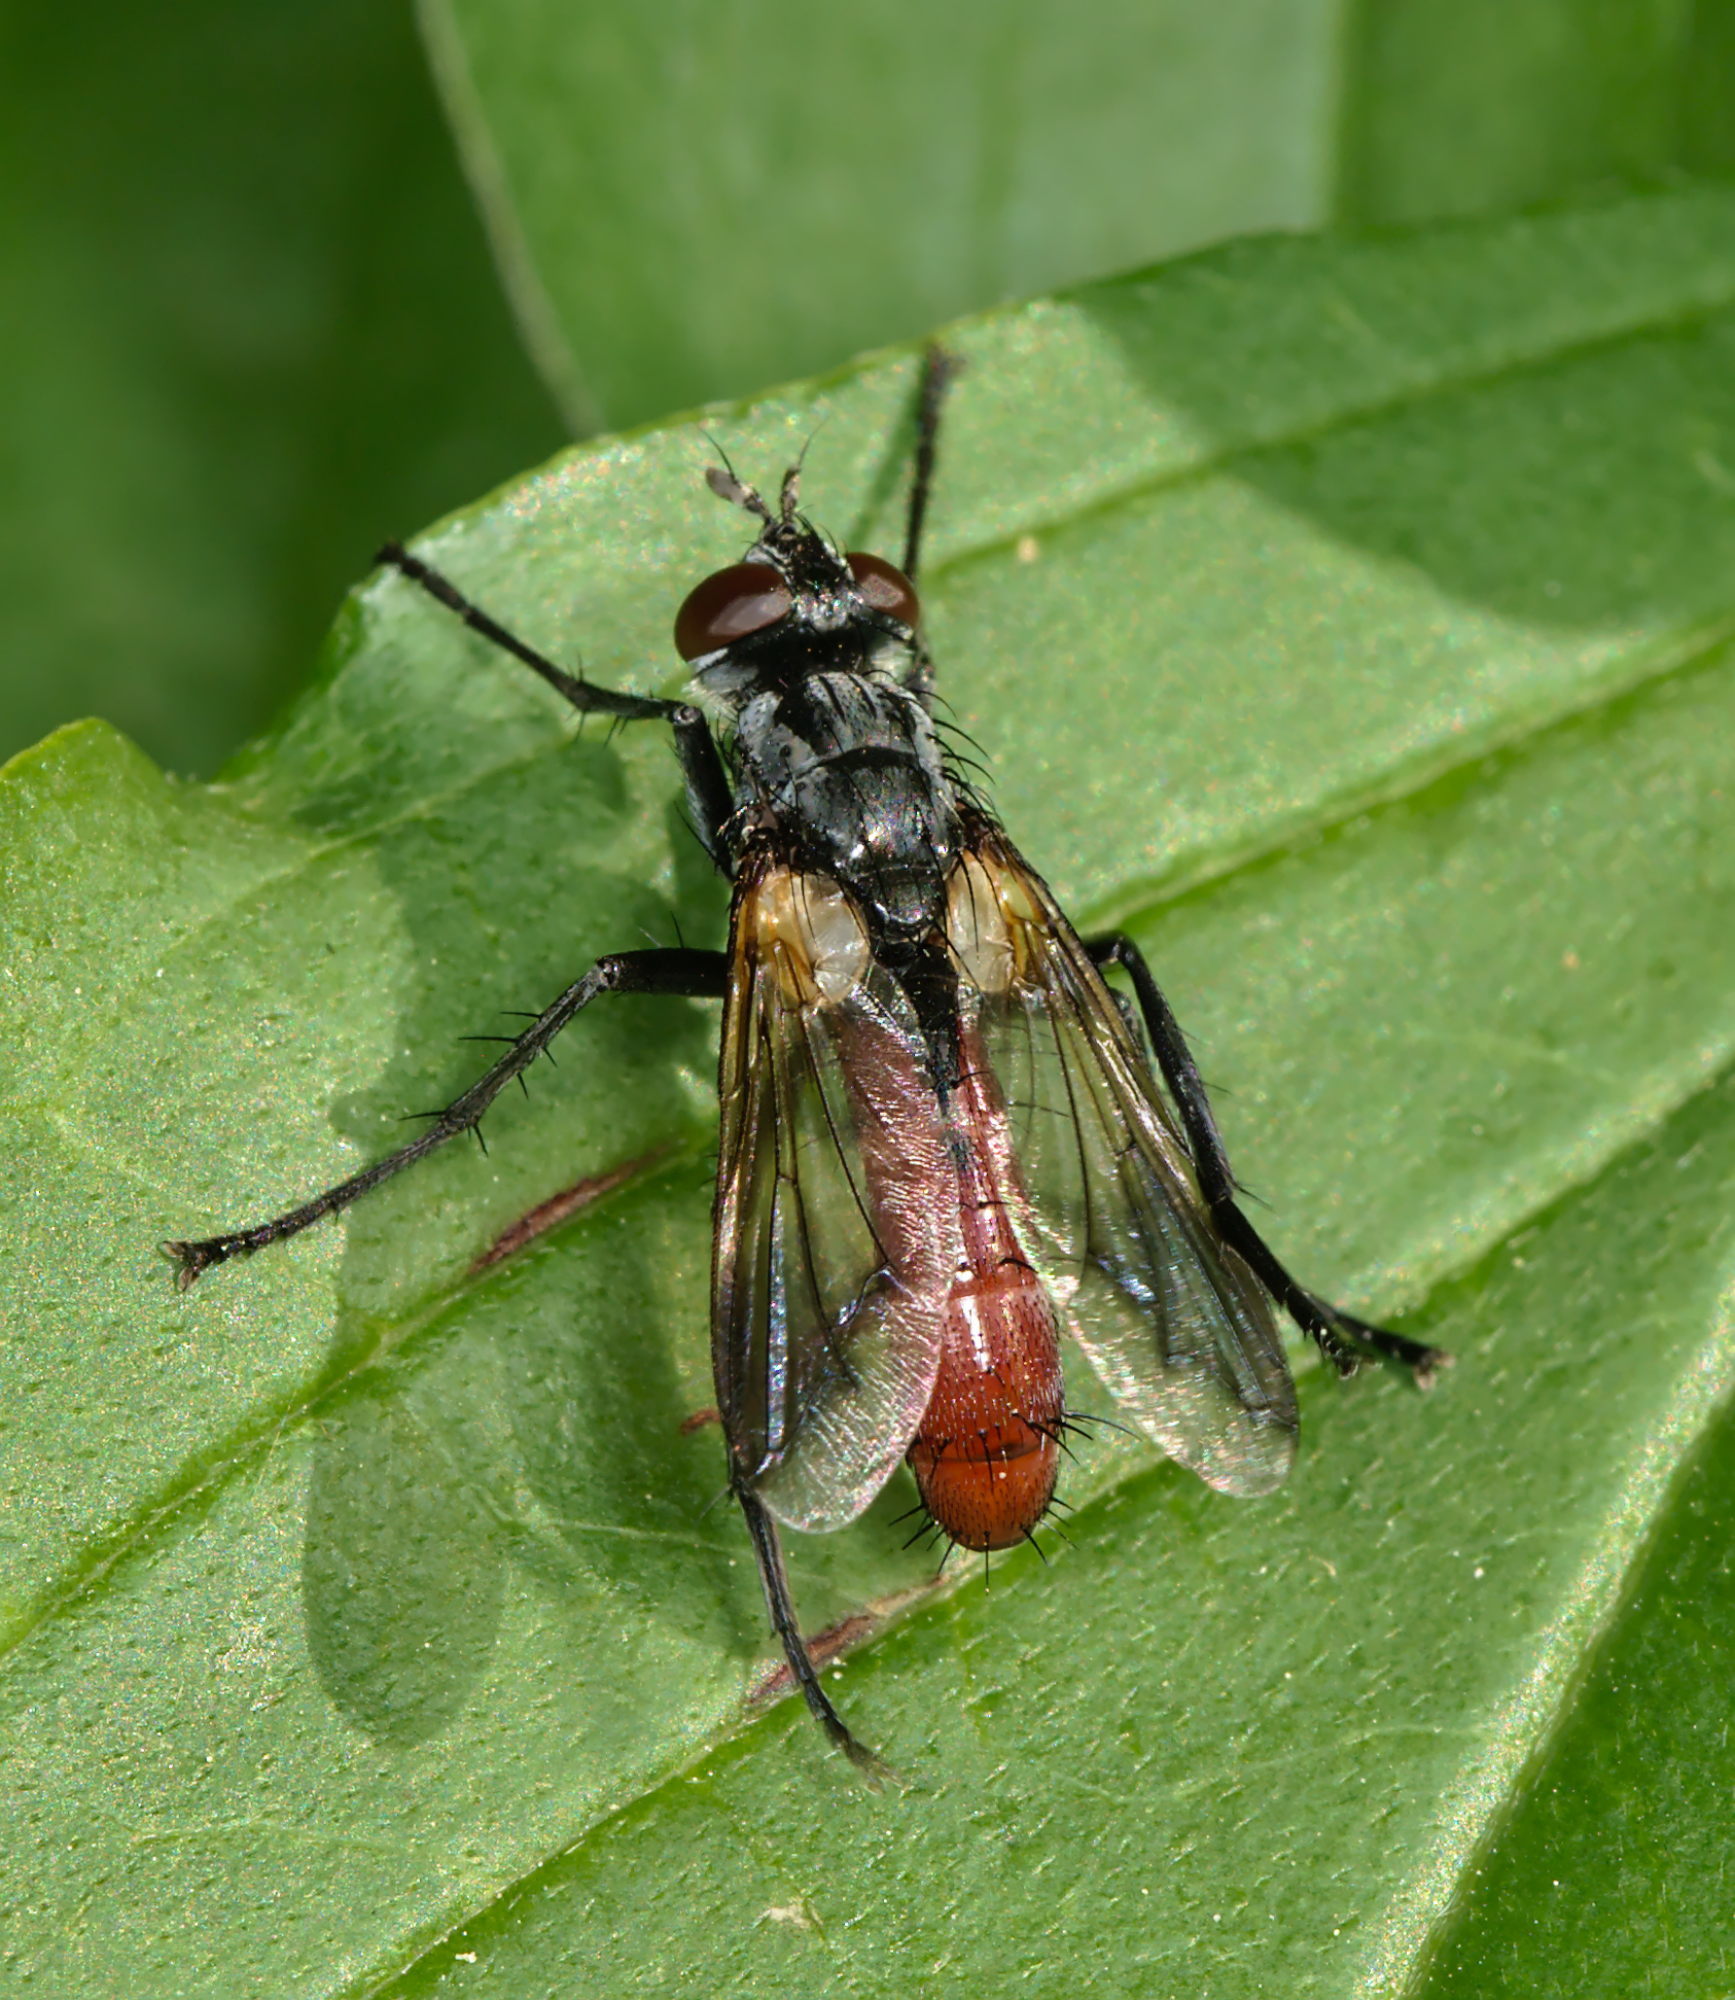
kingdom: Animalia
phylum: Arthropoda
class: Insecta
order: Diptera
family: Tachinidae
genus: Cylindromyia
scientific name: Cylindromyia bicolor
